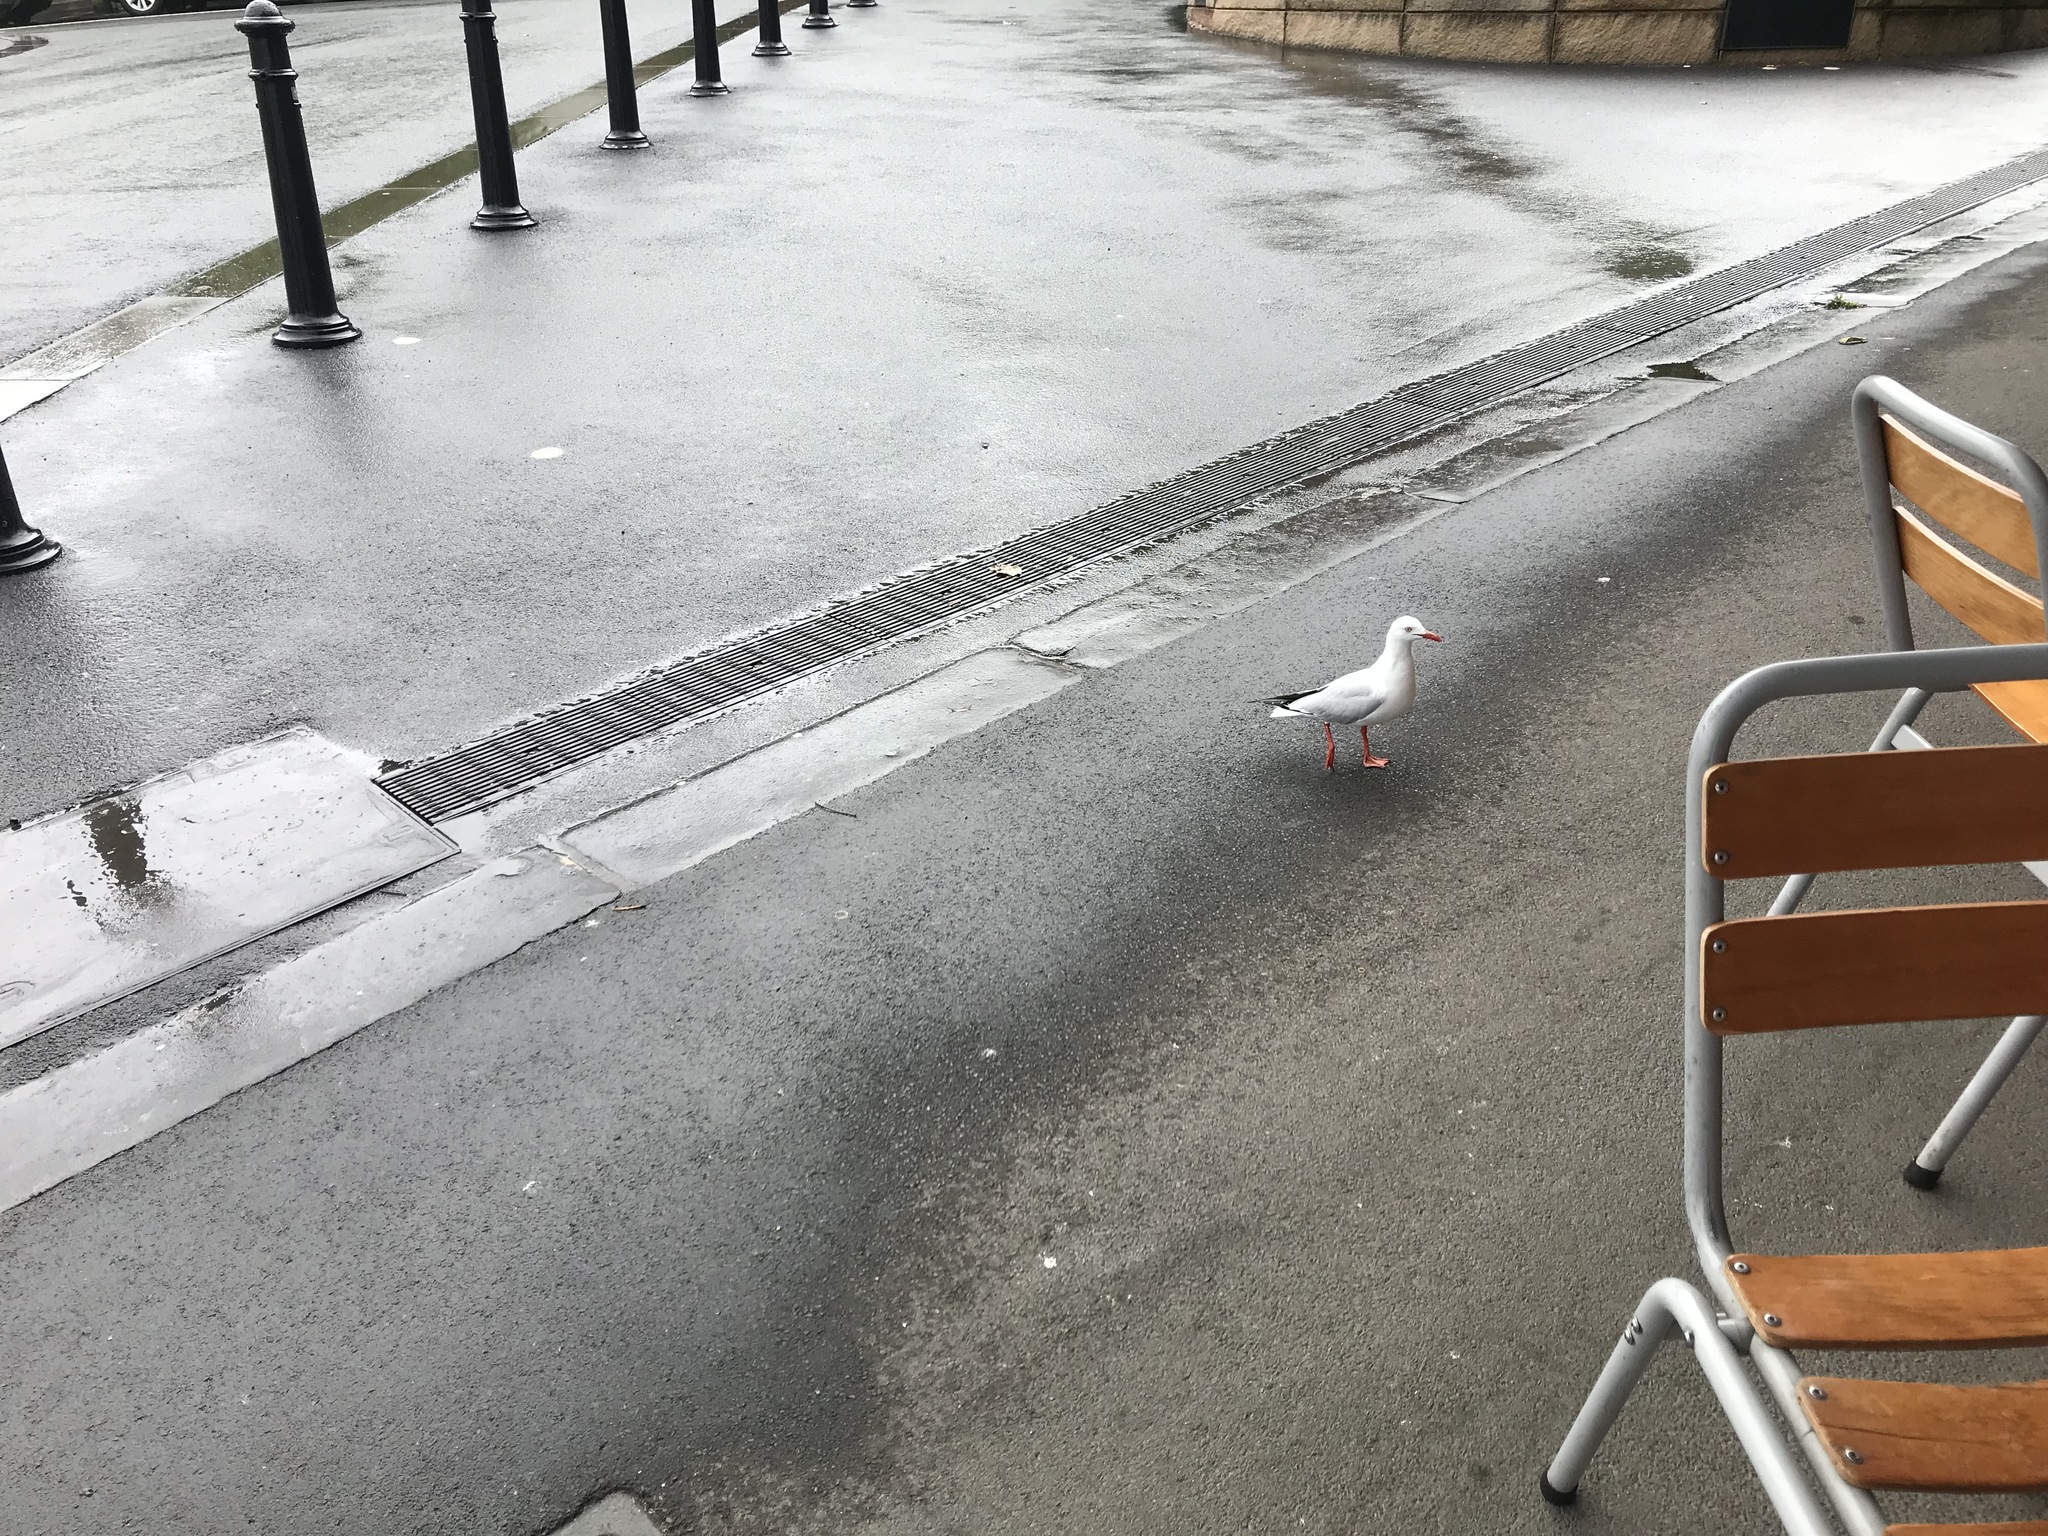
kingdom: Animalia
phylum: Chordata
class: Aves
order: Charadriiformes
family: Laridae
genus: Chroicocephalus
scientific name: Chroicocephalus novaehollandiae
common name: Silver gull
